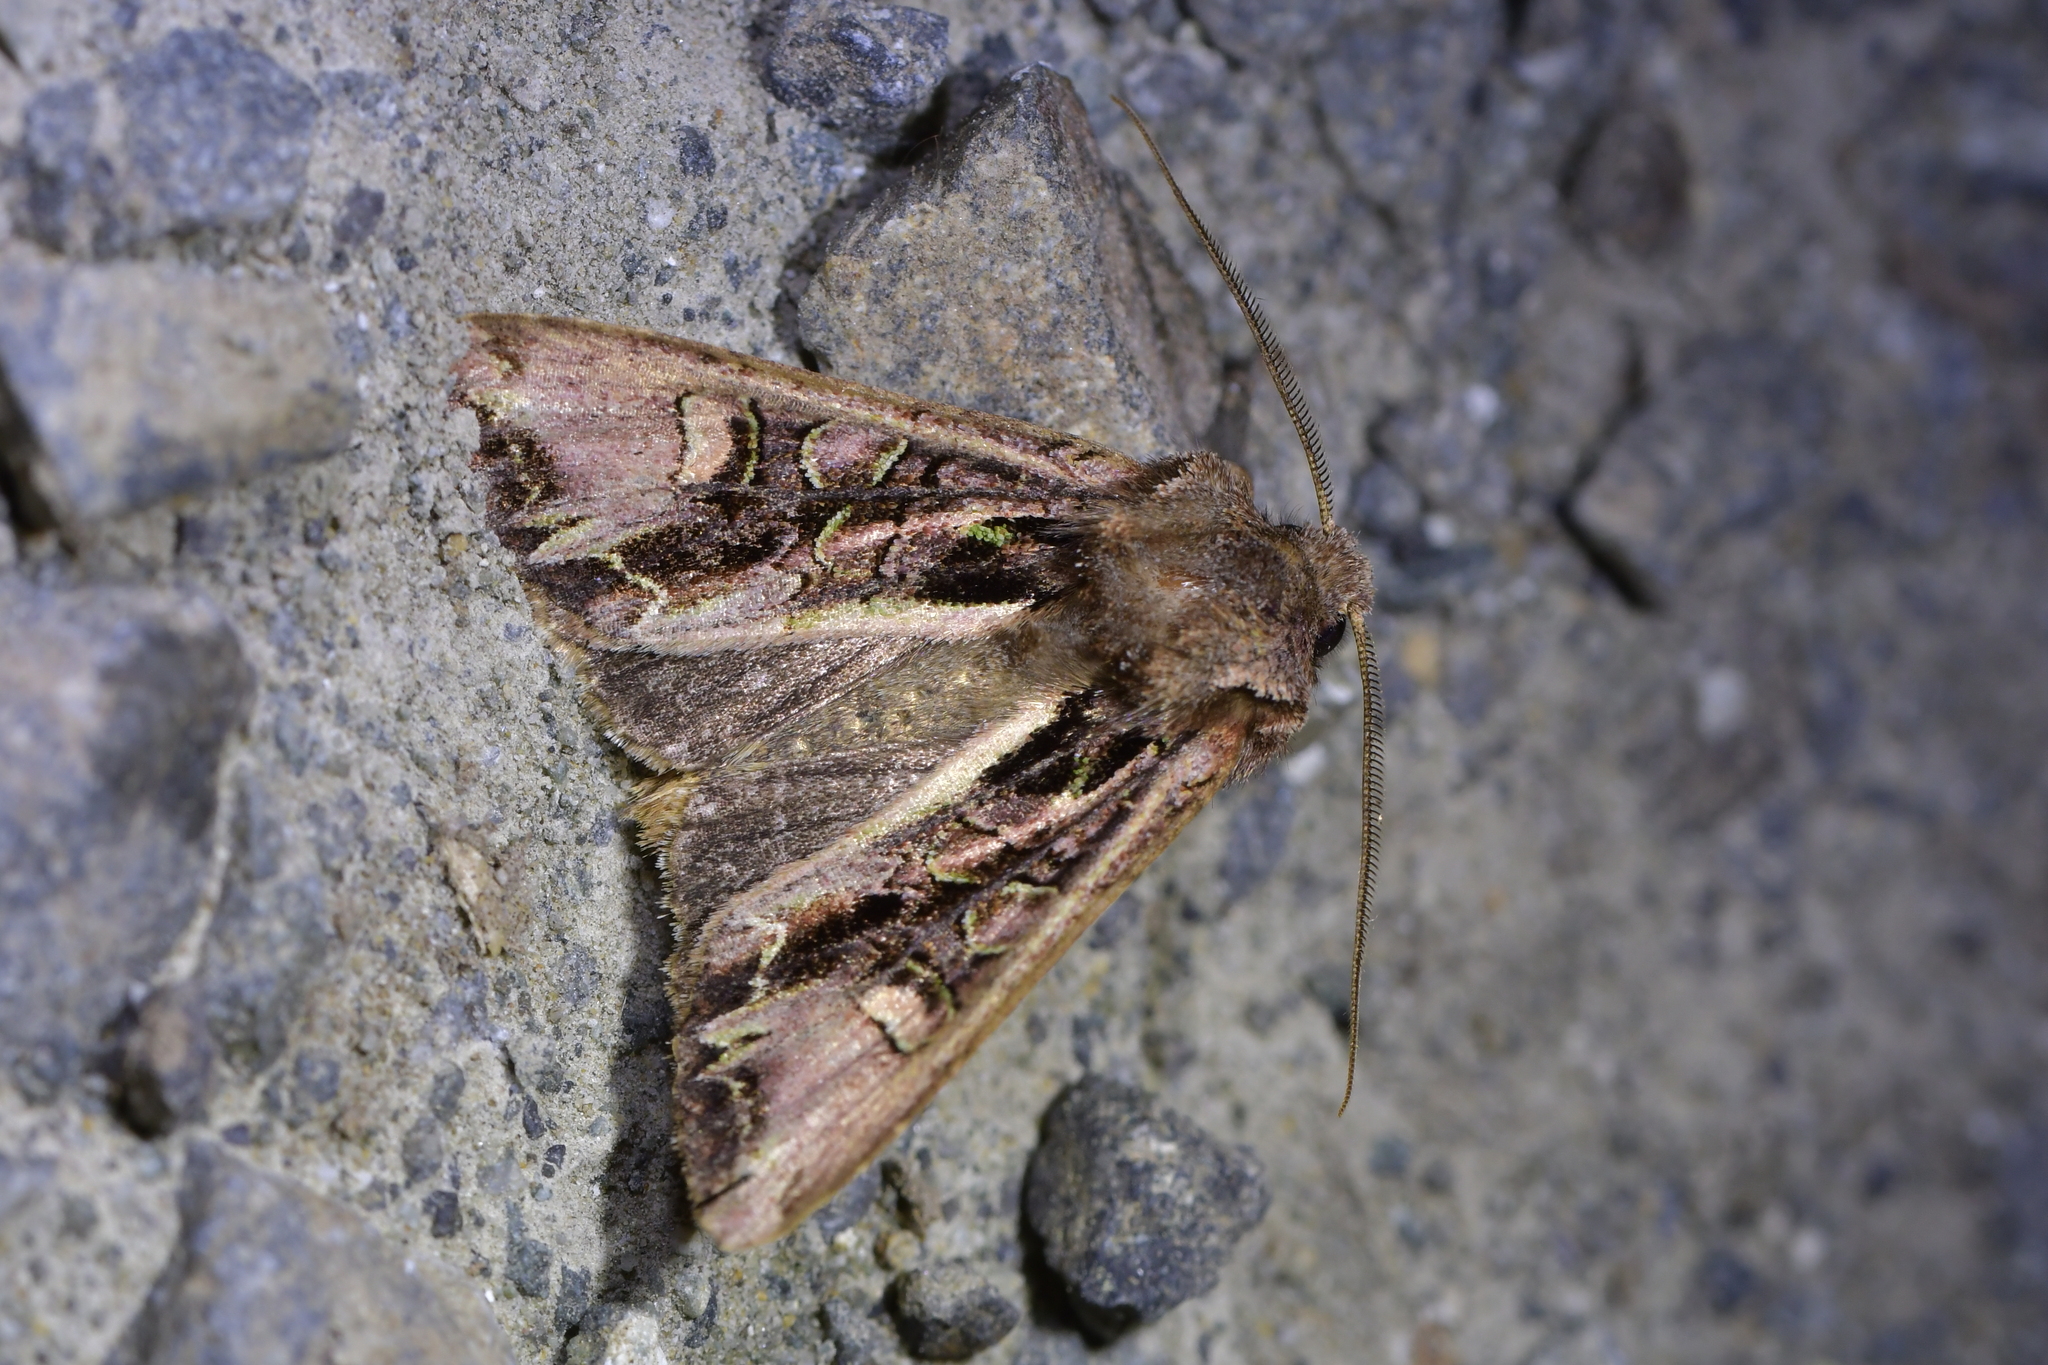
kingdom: Animalia
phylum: Arthropoda
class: Insecta
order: Lepidoptera
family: Noctuidae
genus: Ichneutica
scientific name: Ichneutica insignis
